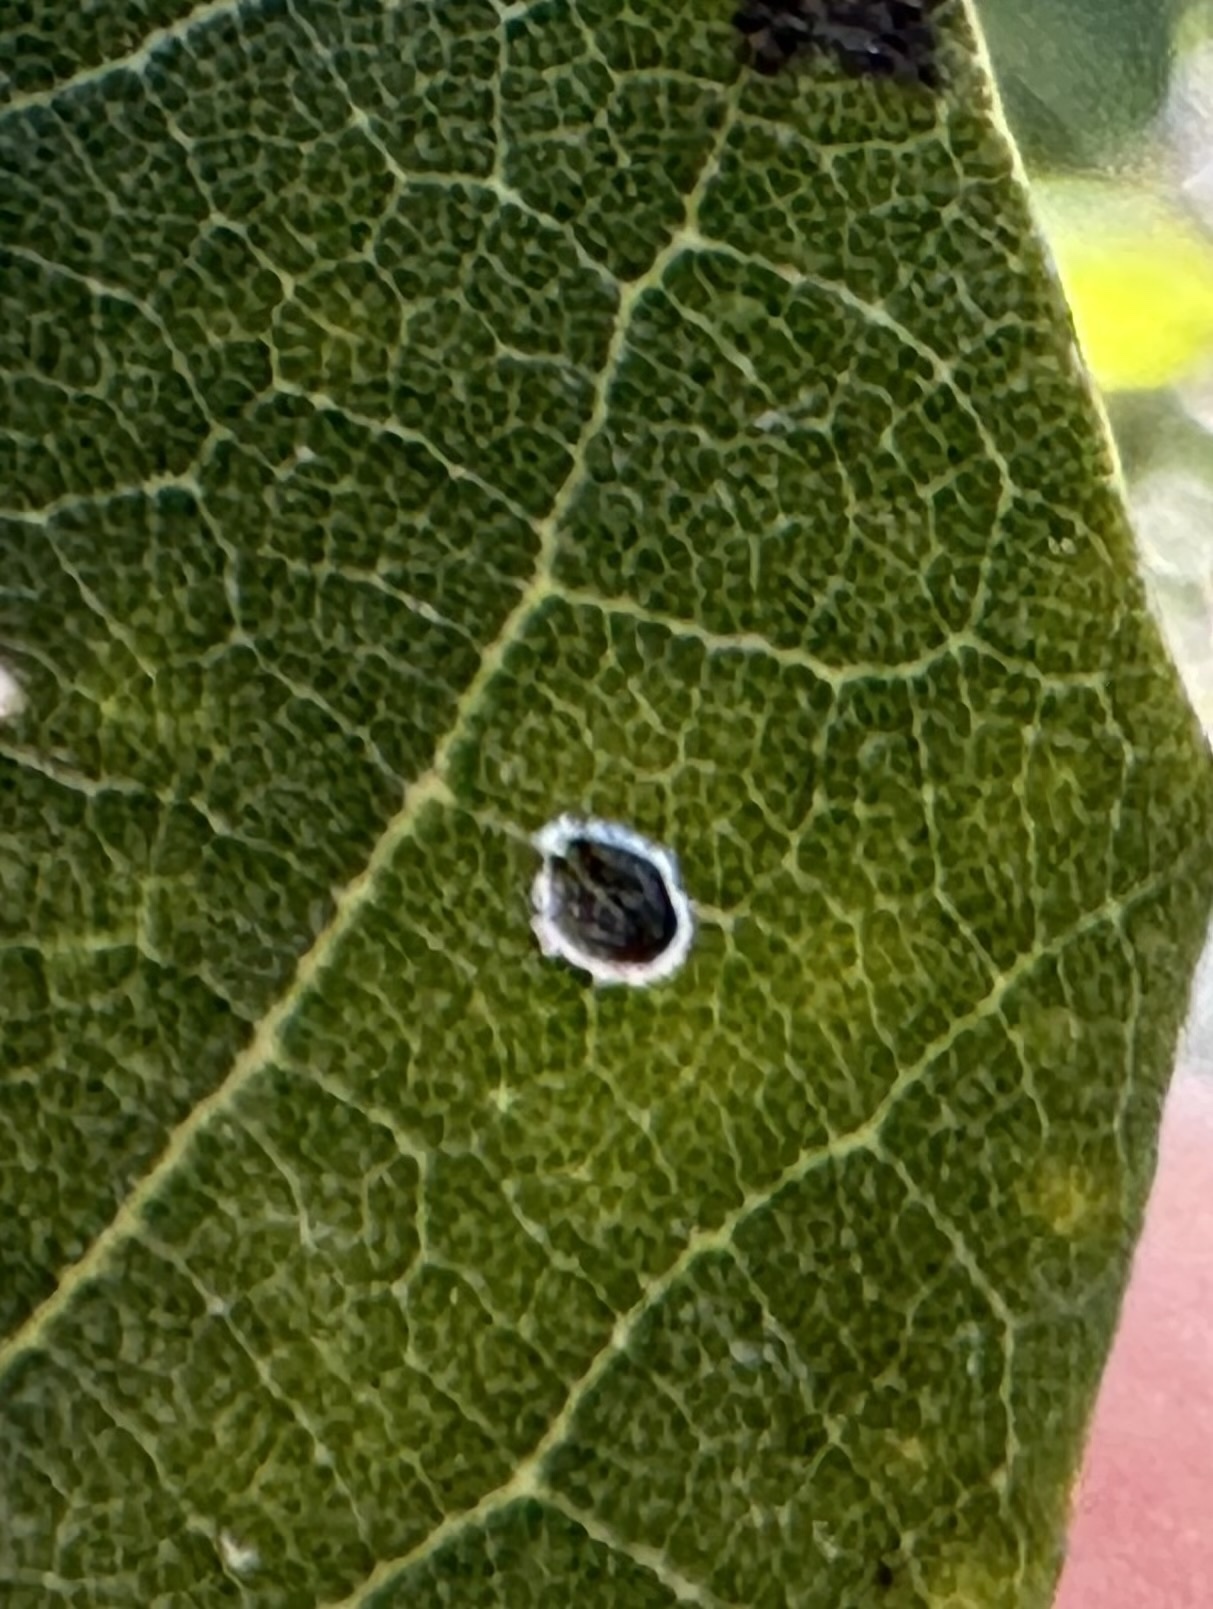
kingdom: Animalia
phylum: Arthropoda
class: Insecta
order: Hemiptera
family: Aleyrodidae
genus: Tetraleurodes
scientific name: Tetraleurodes perileuca
